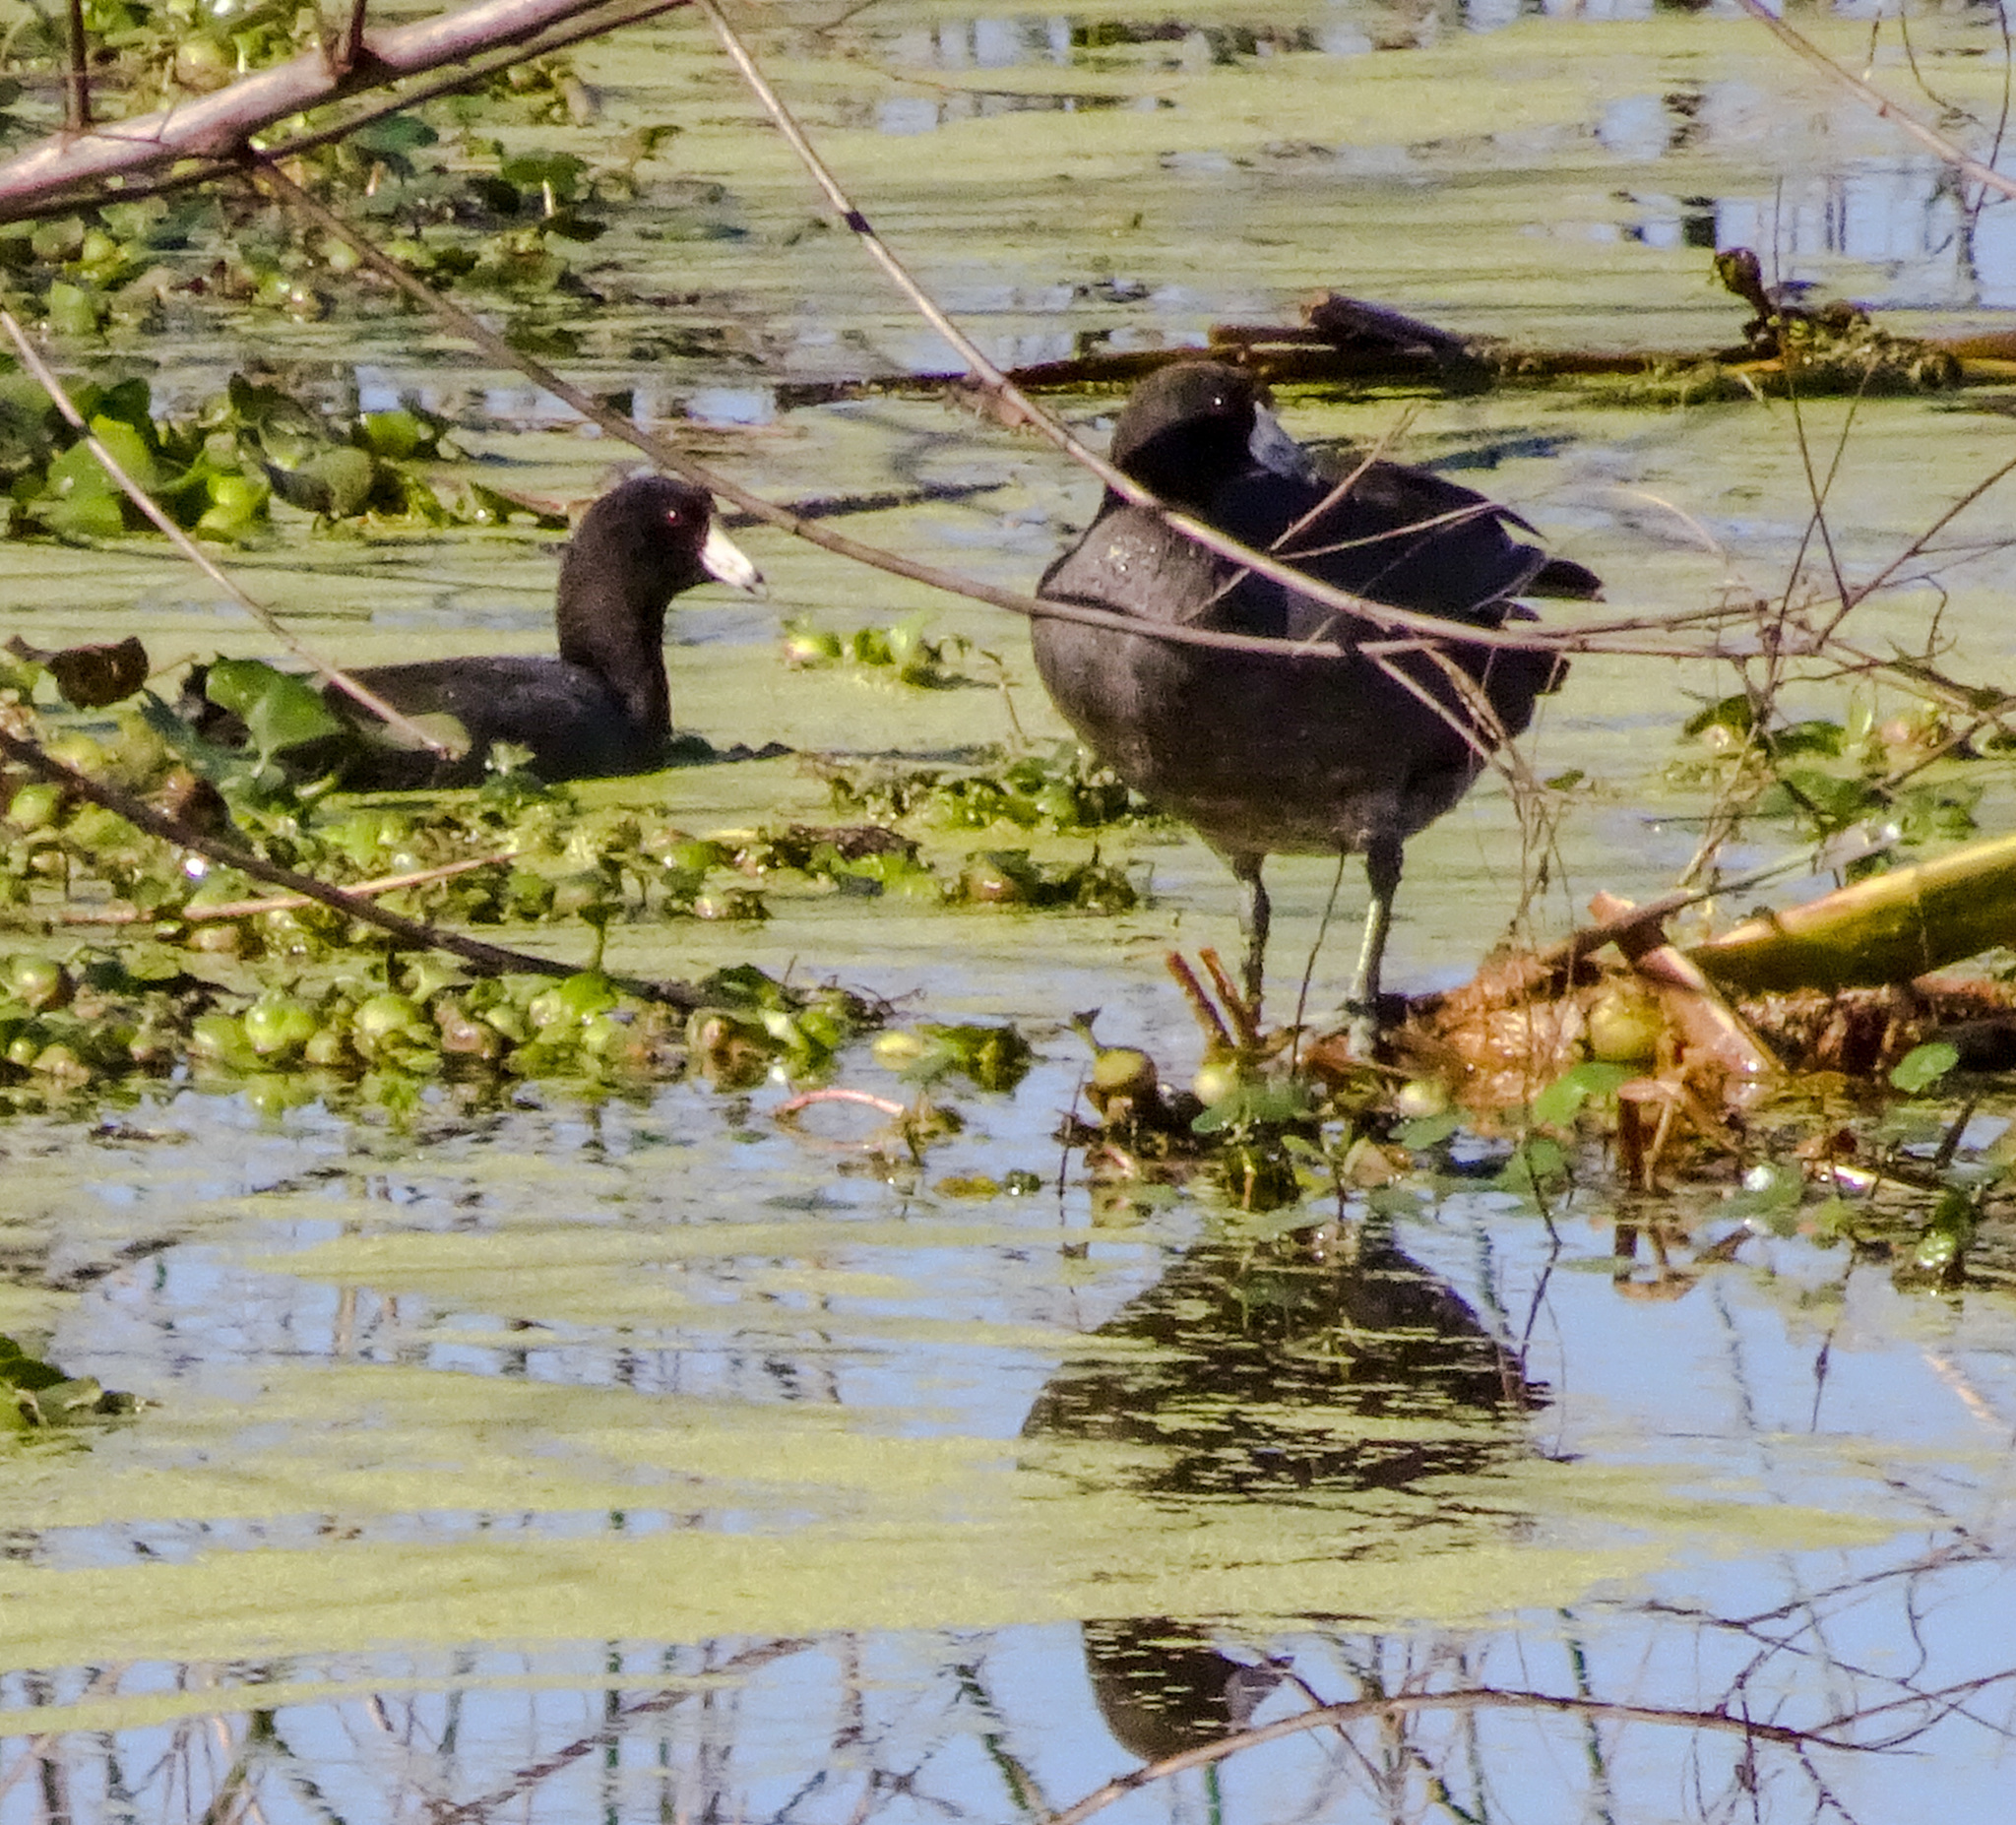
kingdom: Animalia
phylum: Chordata
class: Aves
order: Gruiformes
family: Rallidae
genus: Fulica
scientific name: Fulica americana
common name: American coot
